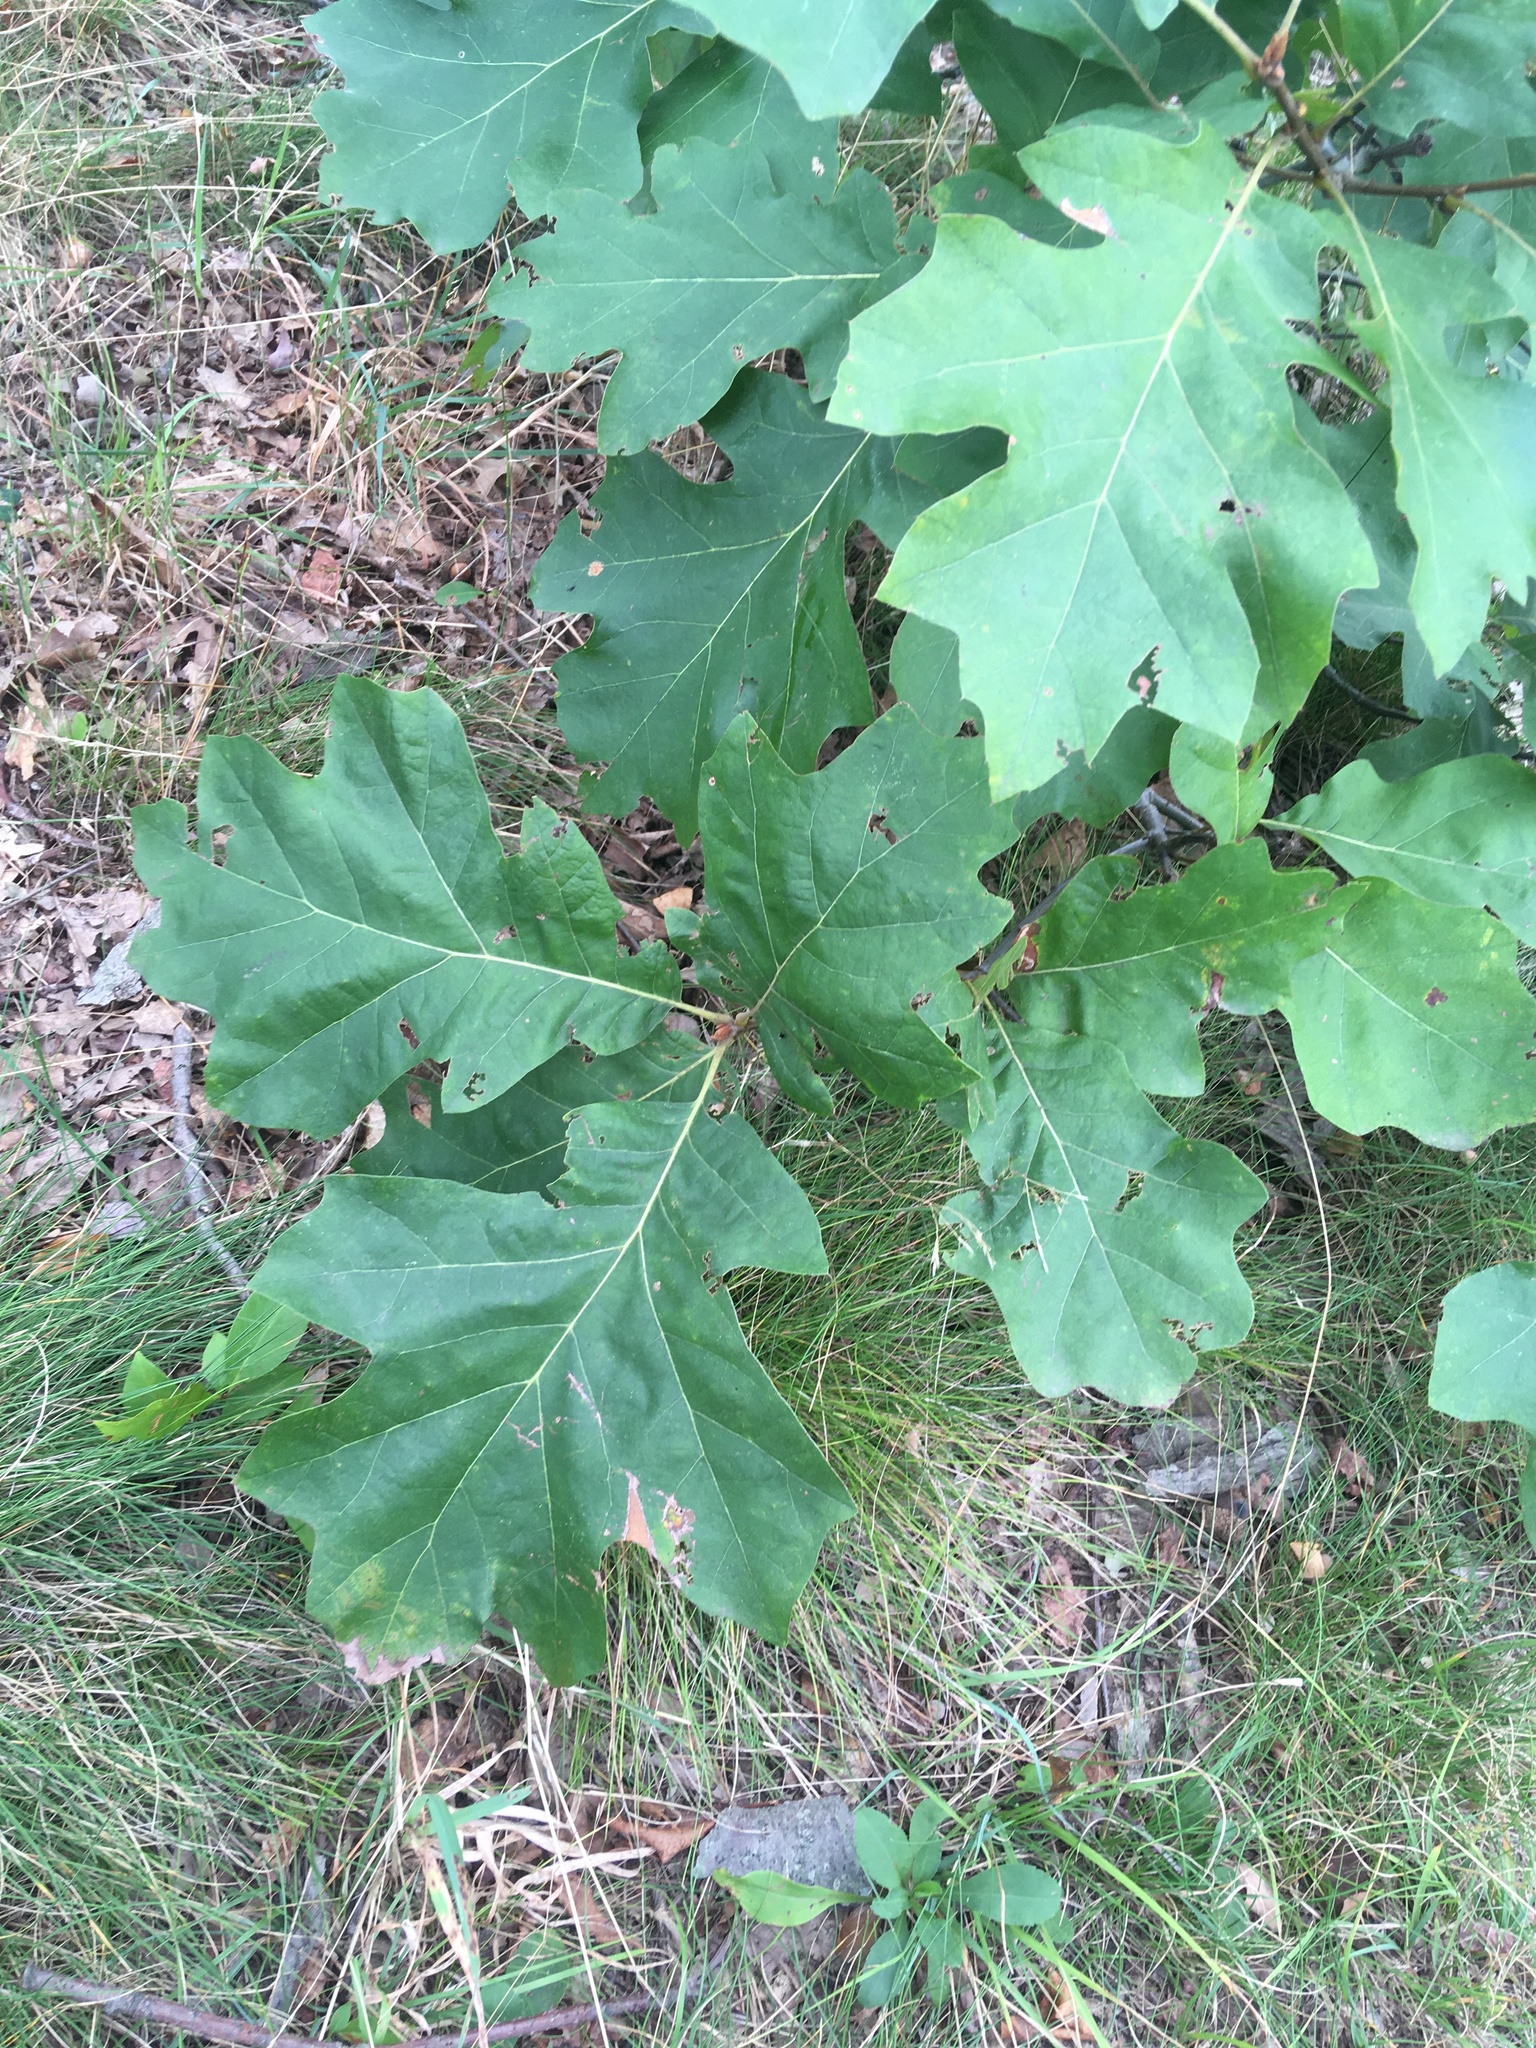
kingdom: Plantae
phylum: Tracheophyta
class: Magnoliopsida
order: Fagales
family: Fagaceae
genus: Quercus
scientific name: Quercus hawkinsiae
